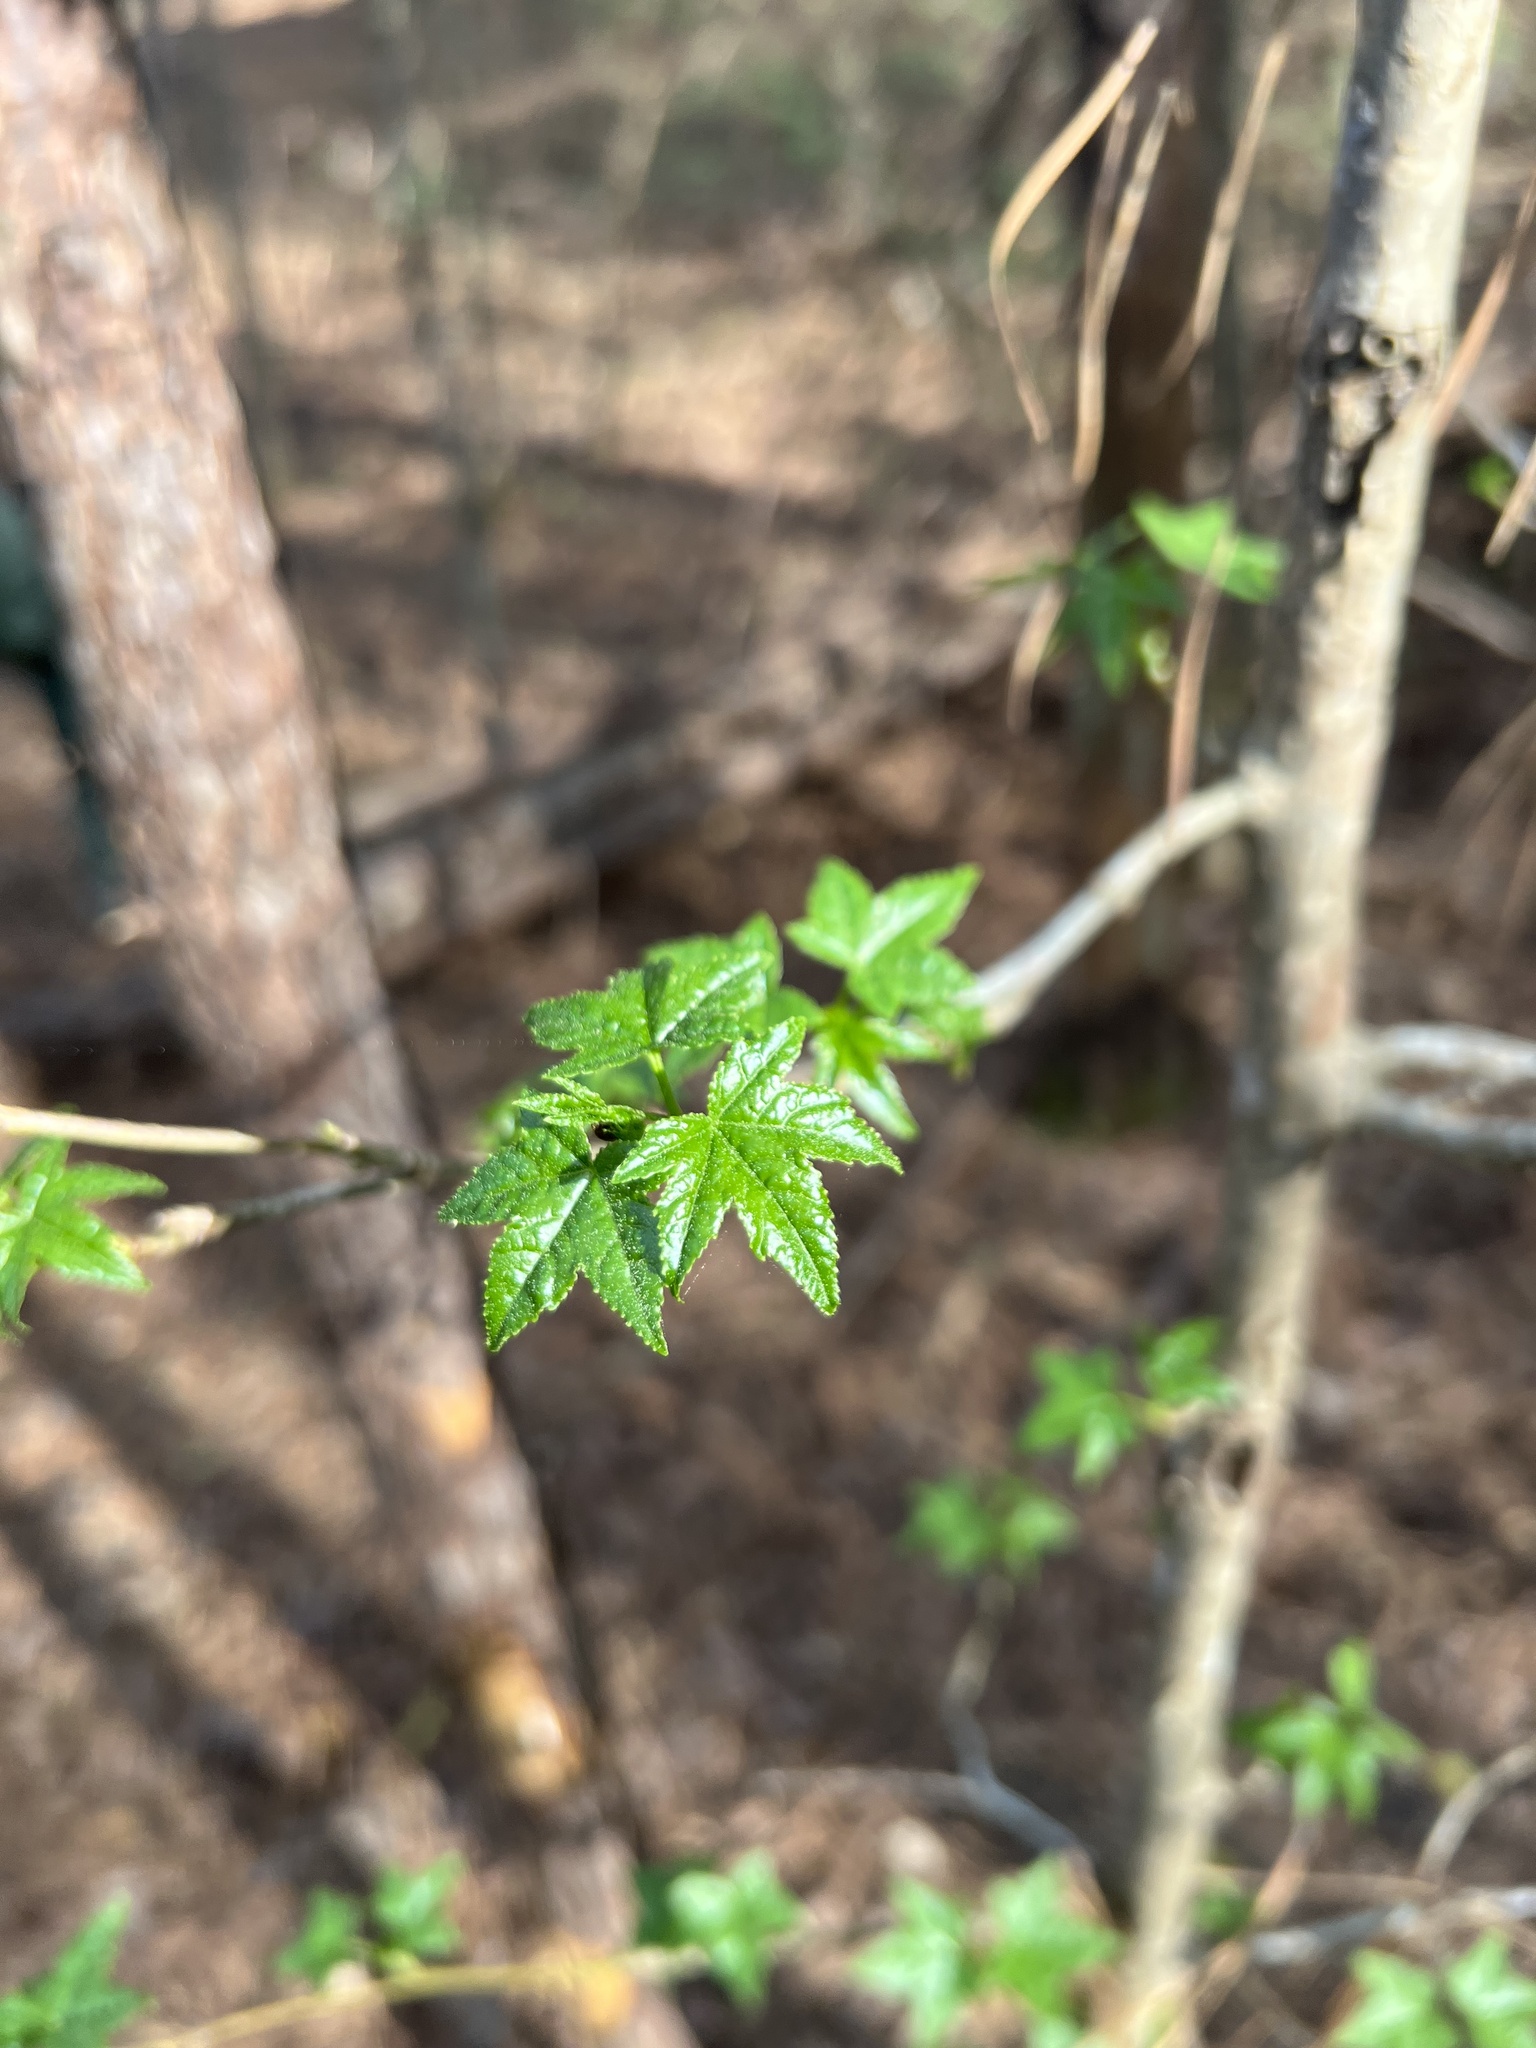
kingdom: Plantae
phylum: Tracheophyta
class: Magnoliopsida
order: Saxifragales
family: Altingiaceae
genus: Liquidambar
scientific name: Liquidambar styraciflua
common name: Sweet gum
